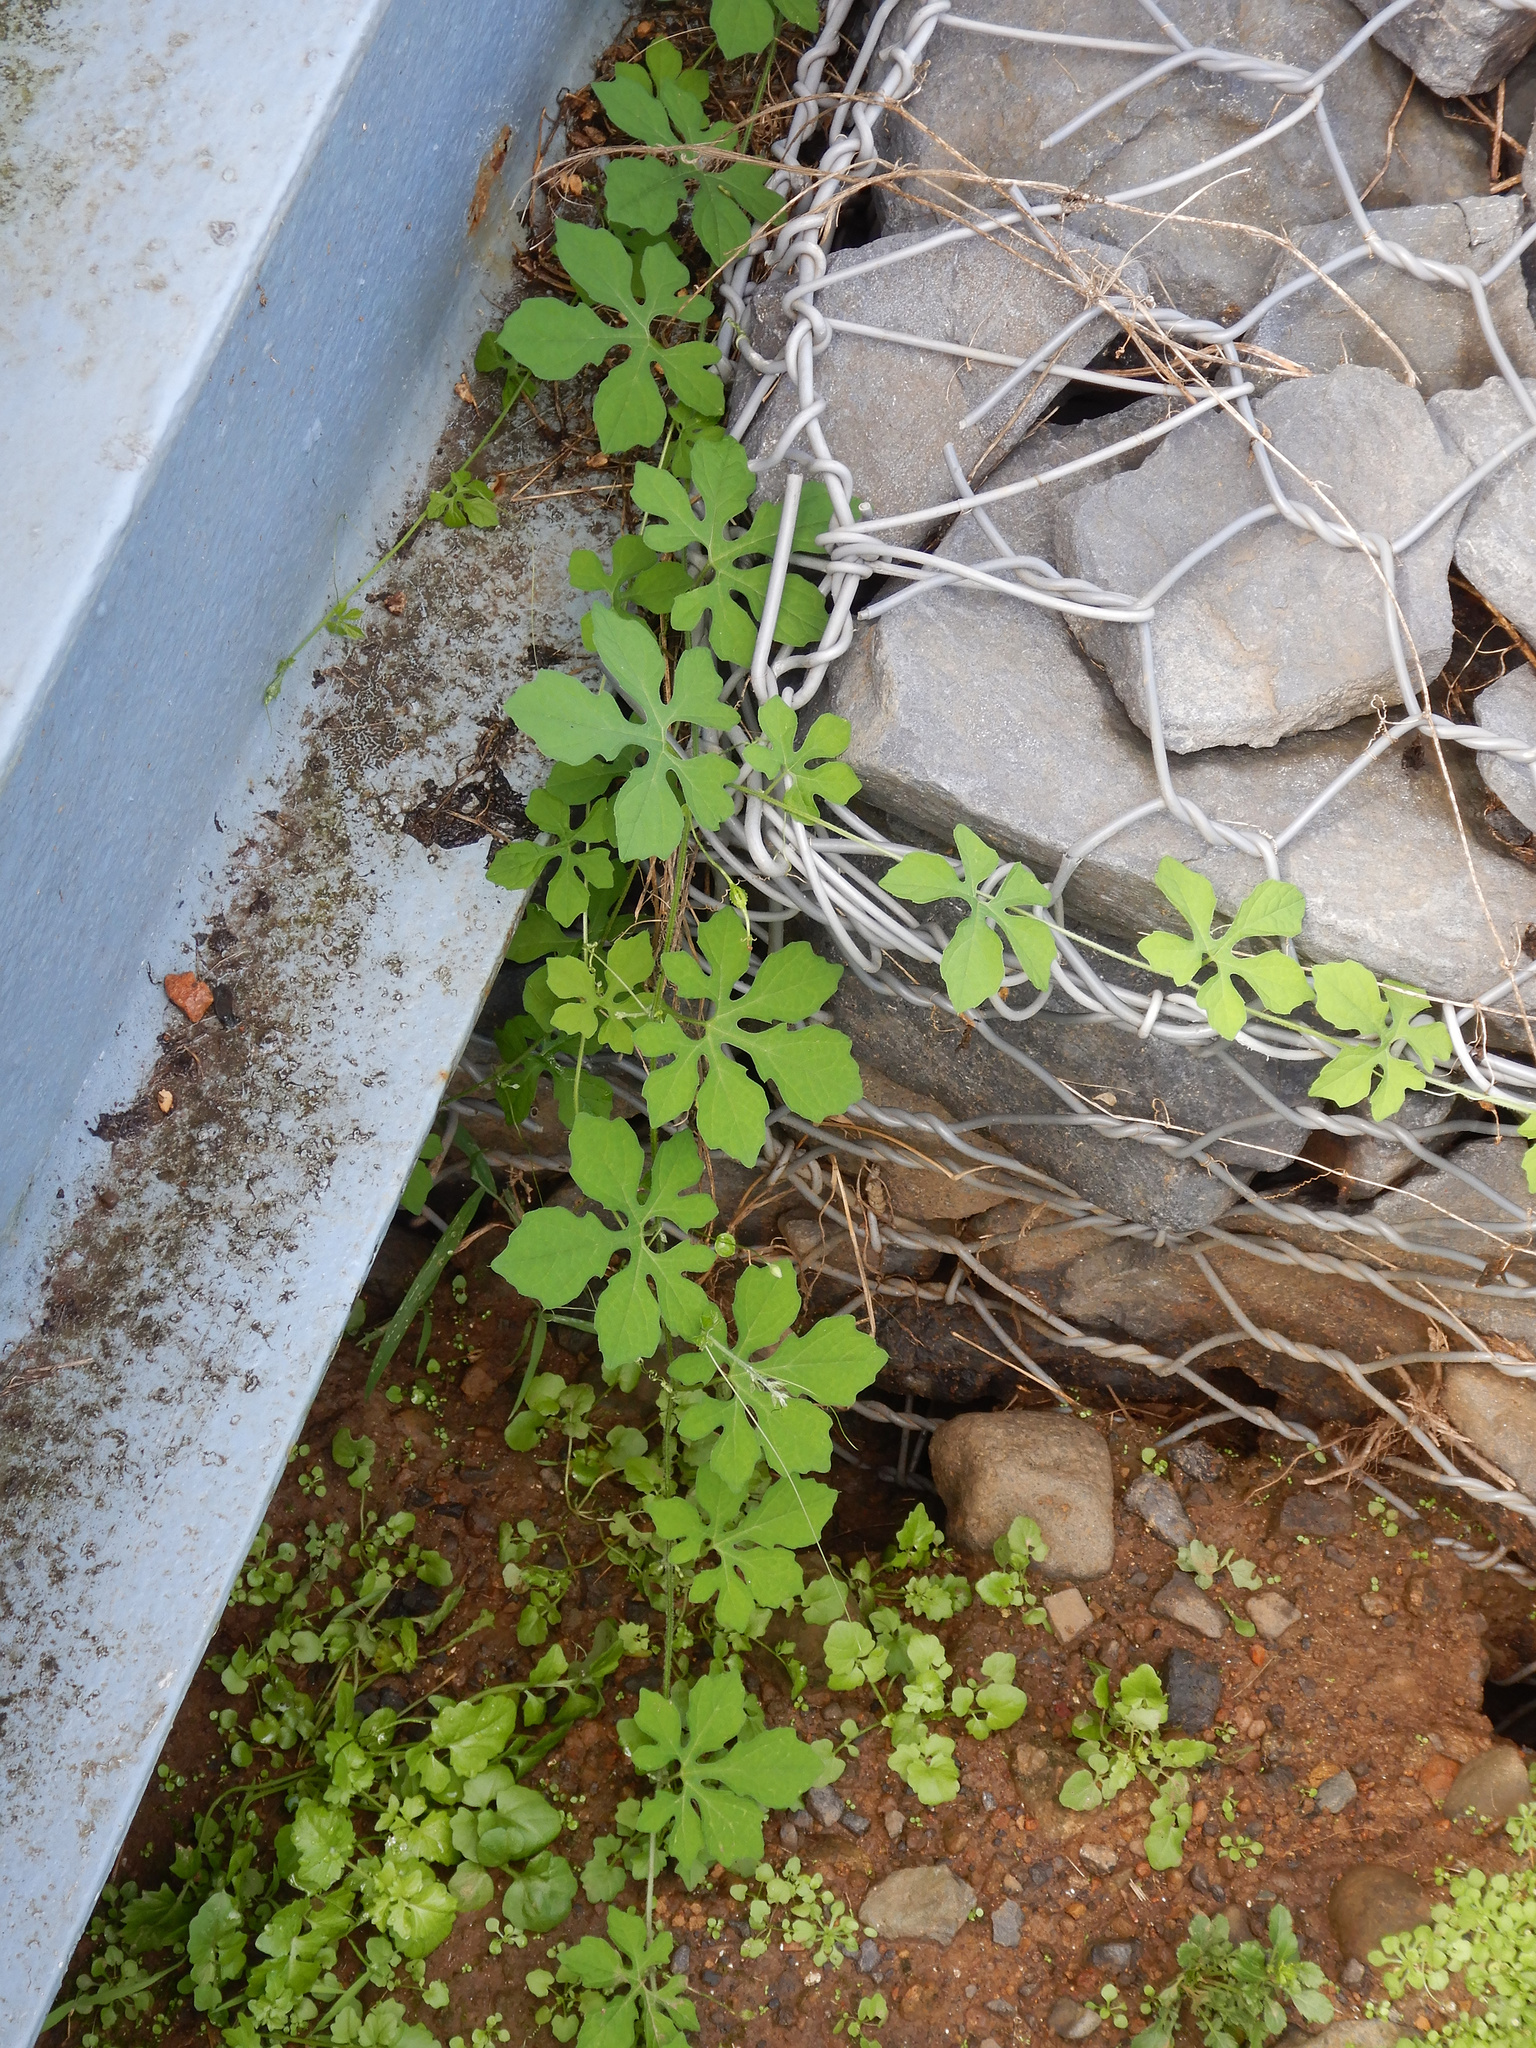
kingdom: Plantae
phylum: Tracheophyta
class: Magnoliopsida
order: Cucurbitales
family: Cucurbitaceae
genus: Momordica
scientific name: Momordica charantia
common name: Balsampear
